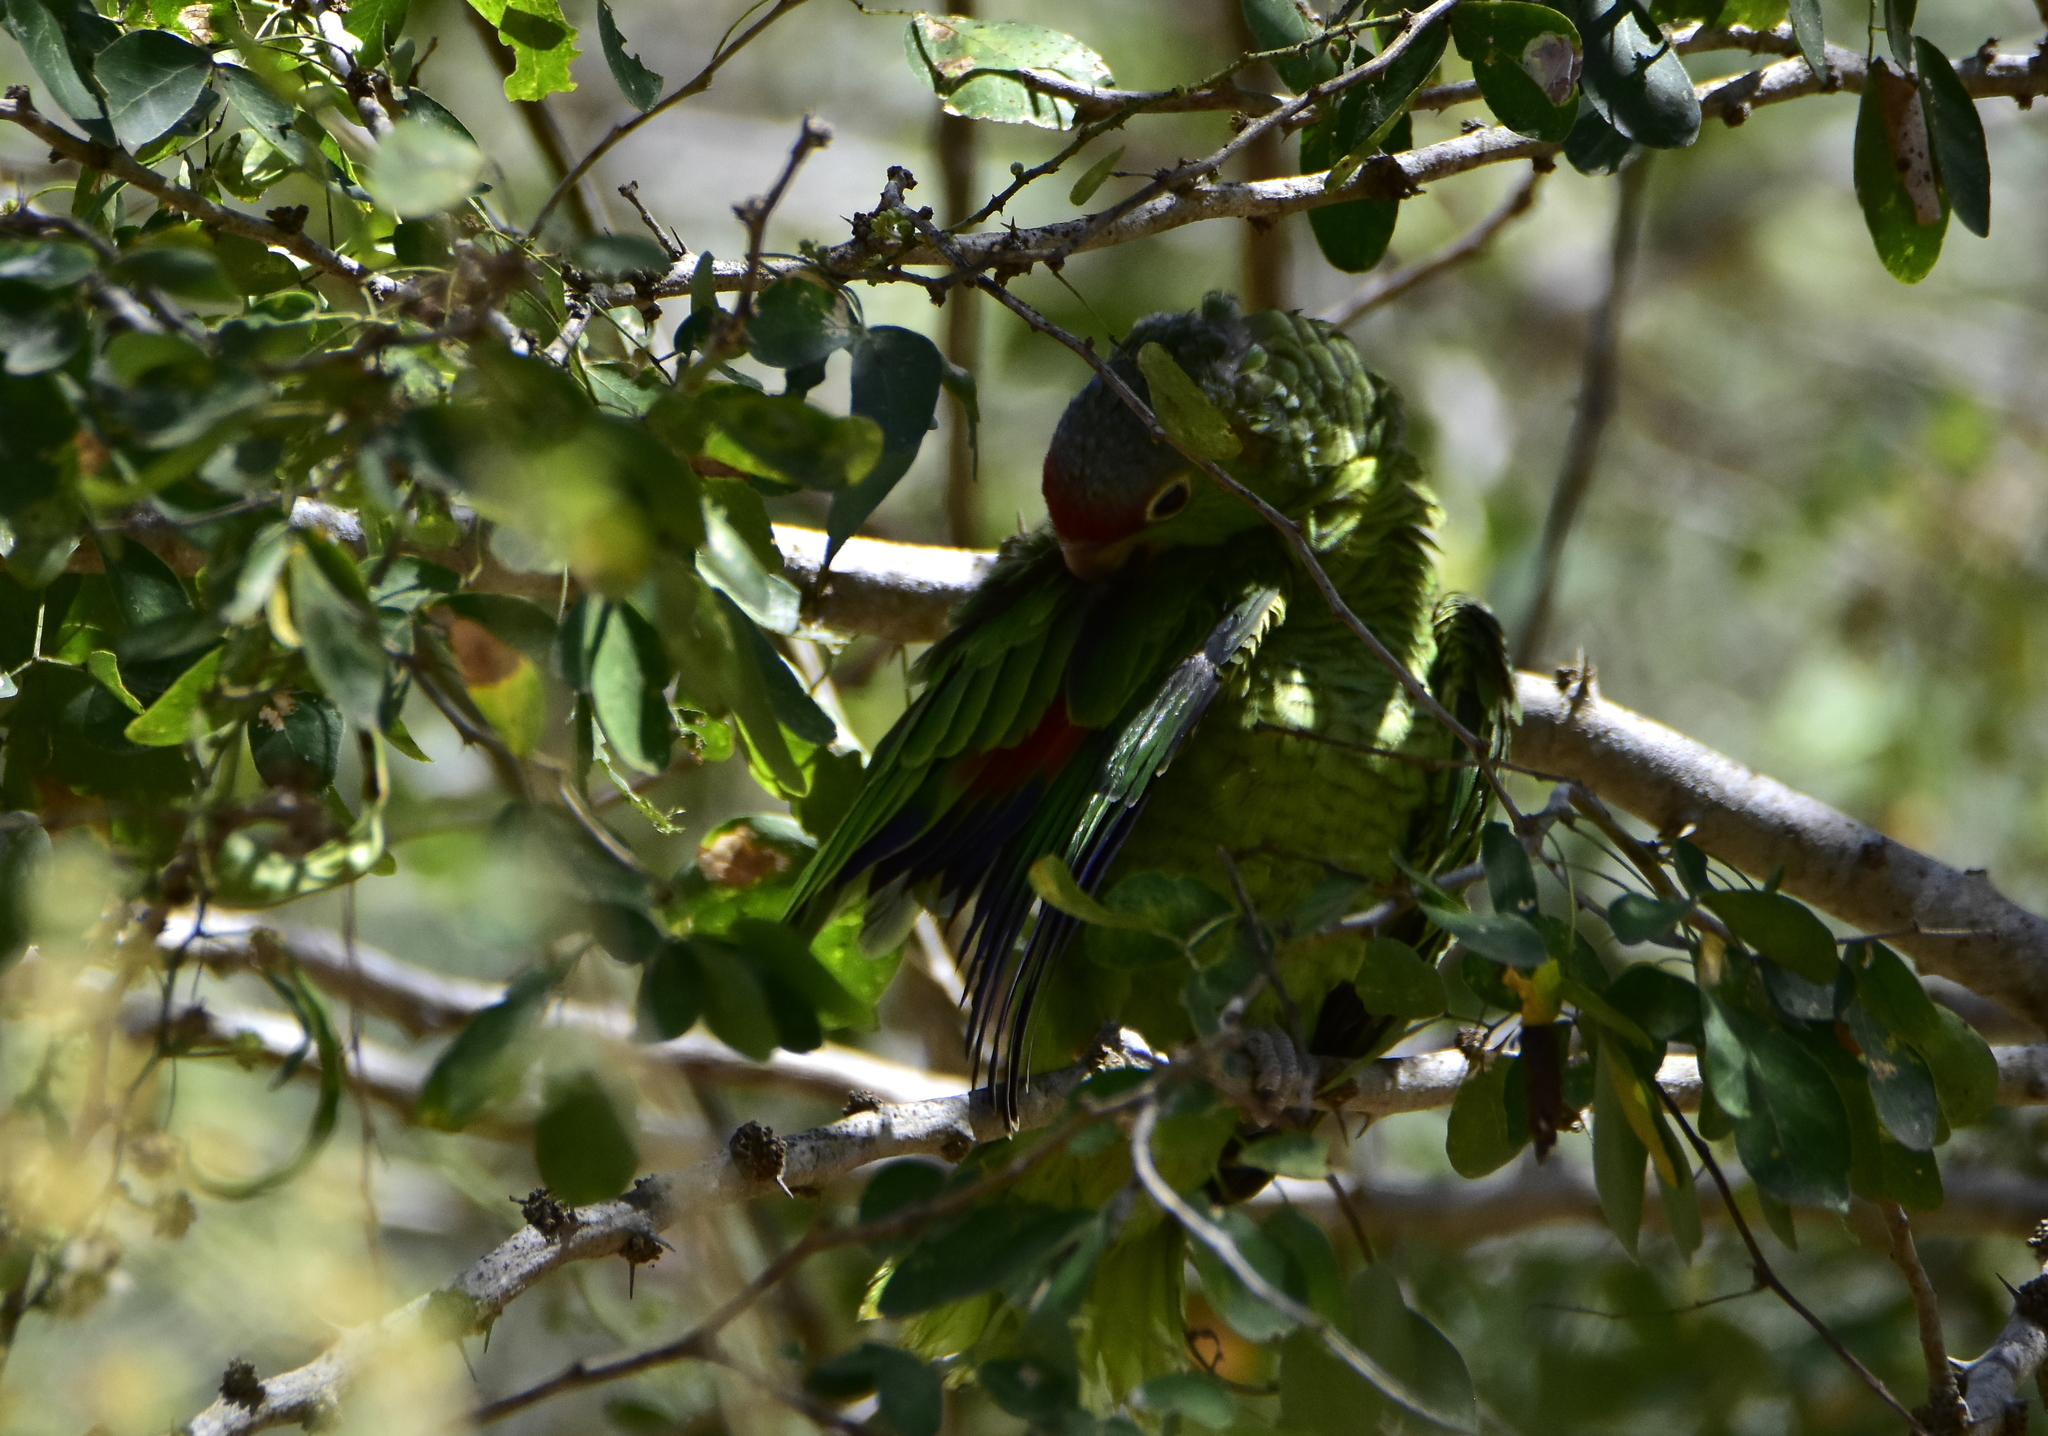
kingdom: Animalia
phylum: Chordata
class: Aves
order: Psittaciformes
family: Psittacidae
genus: Amazona
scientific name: Amazona finschi
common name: Lilac-crowned amazon
